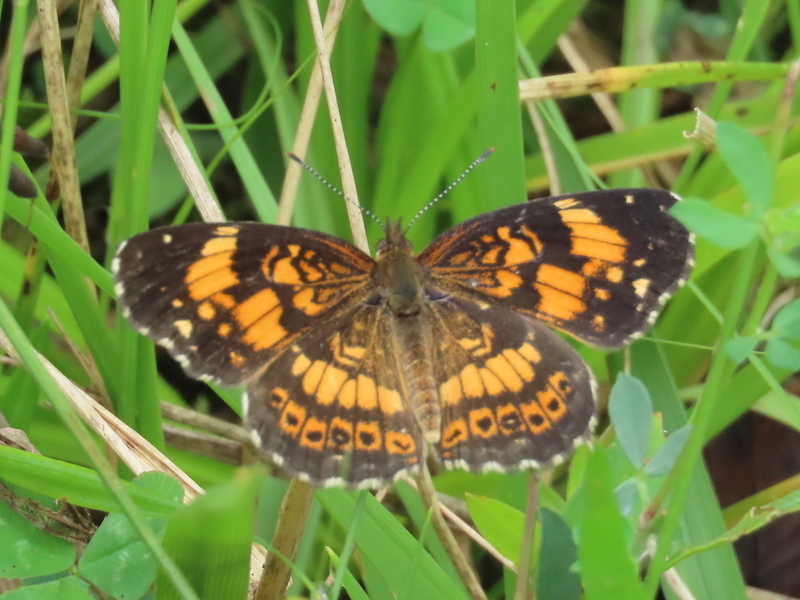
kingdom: Animalia
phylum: Arthropoda
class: Insecta
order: Lepidoptera
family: Nymphalidae
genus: Chlosyne
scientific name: Chlosyne nycteis
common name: Silvery checkerspot
